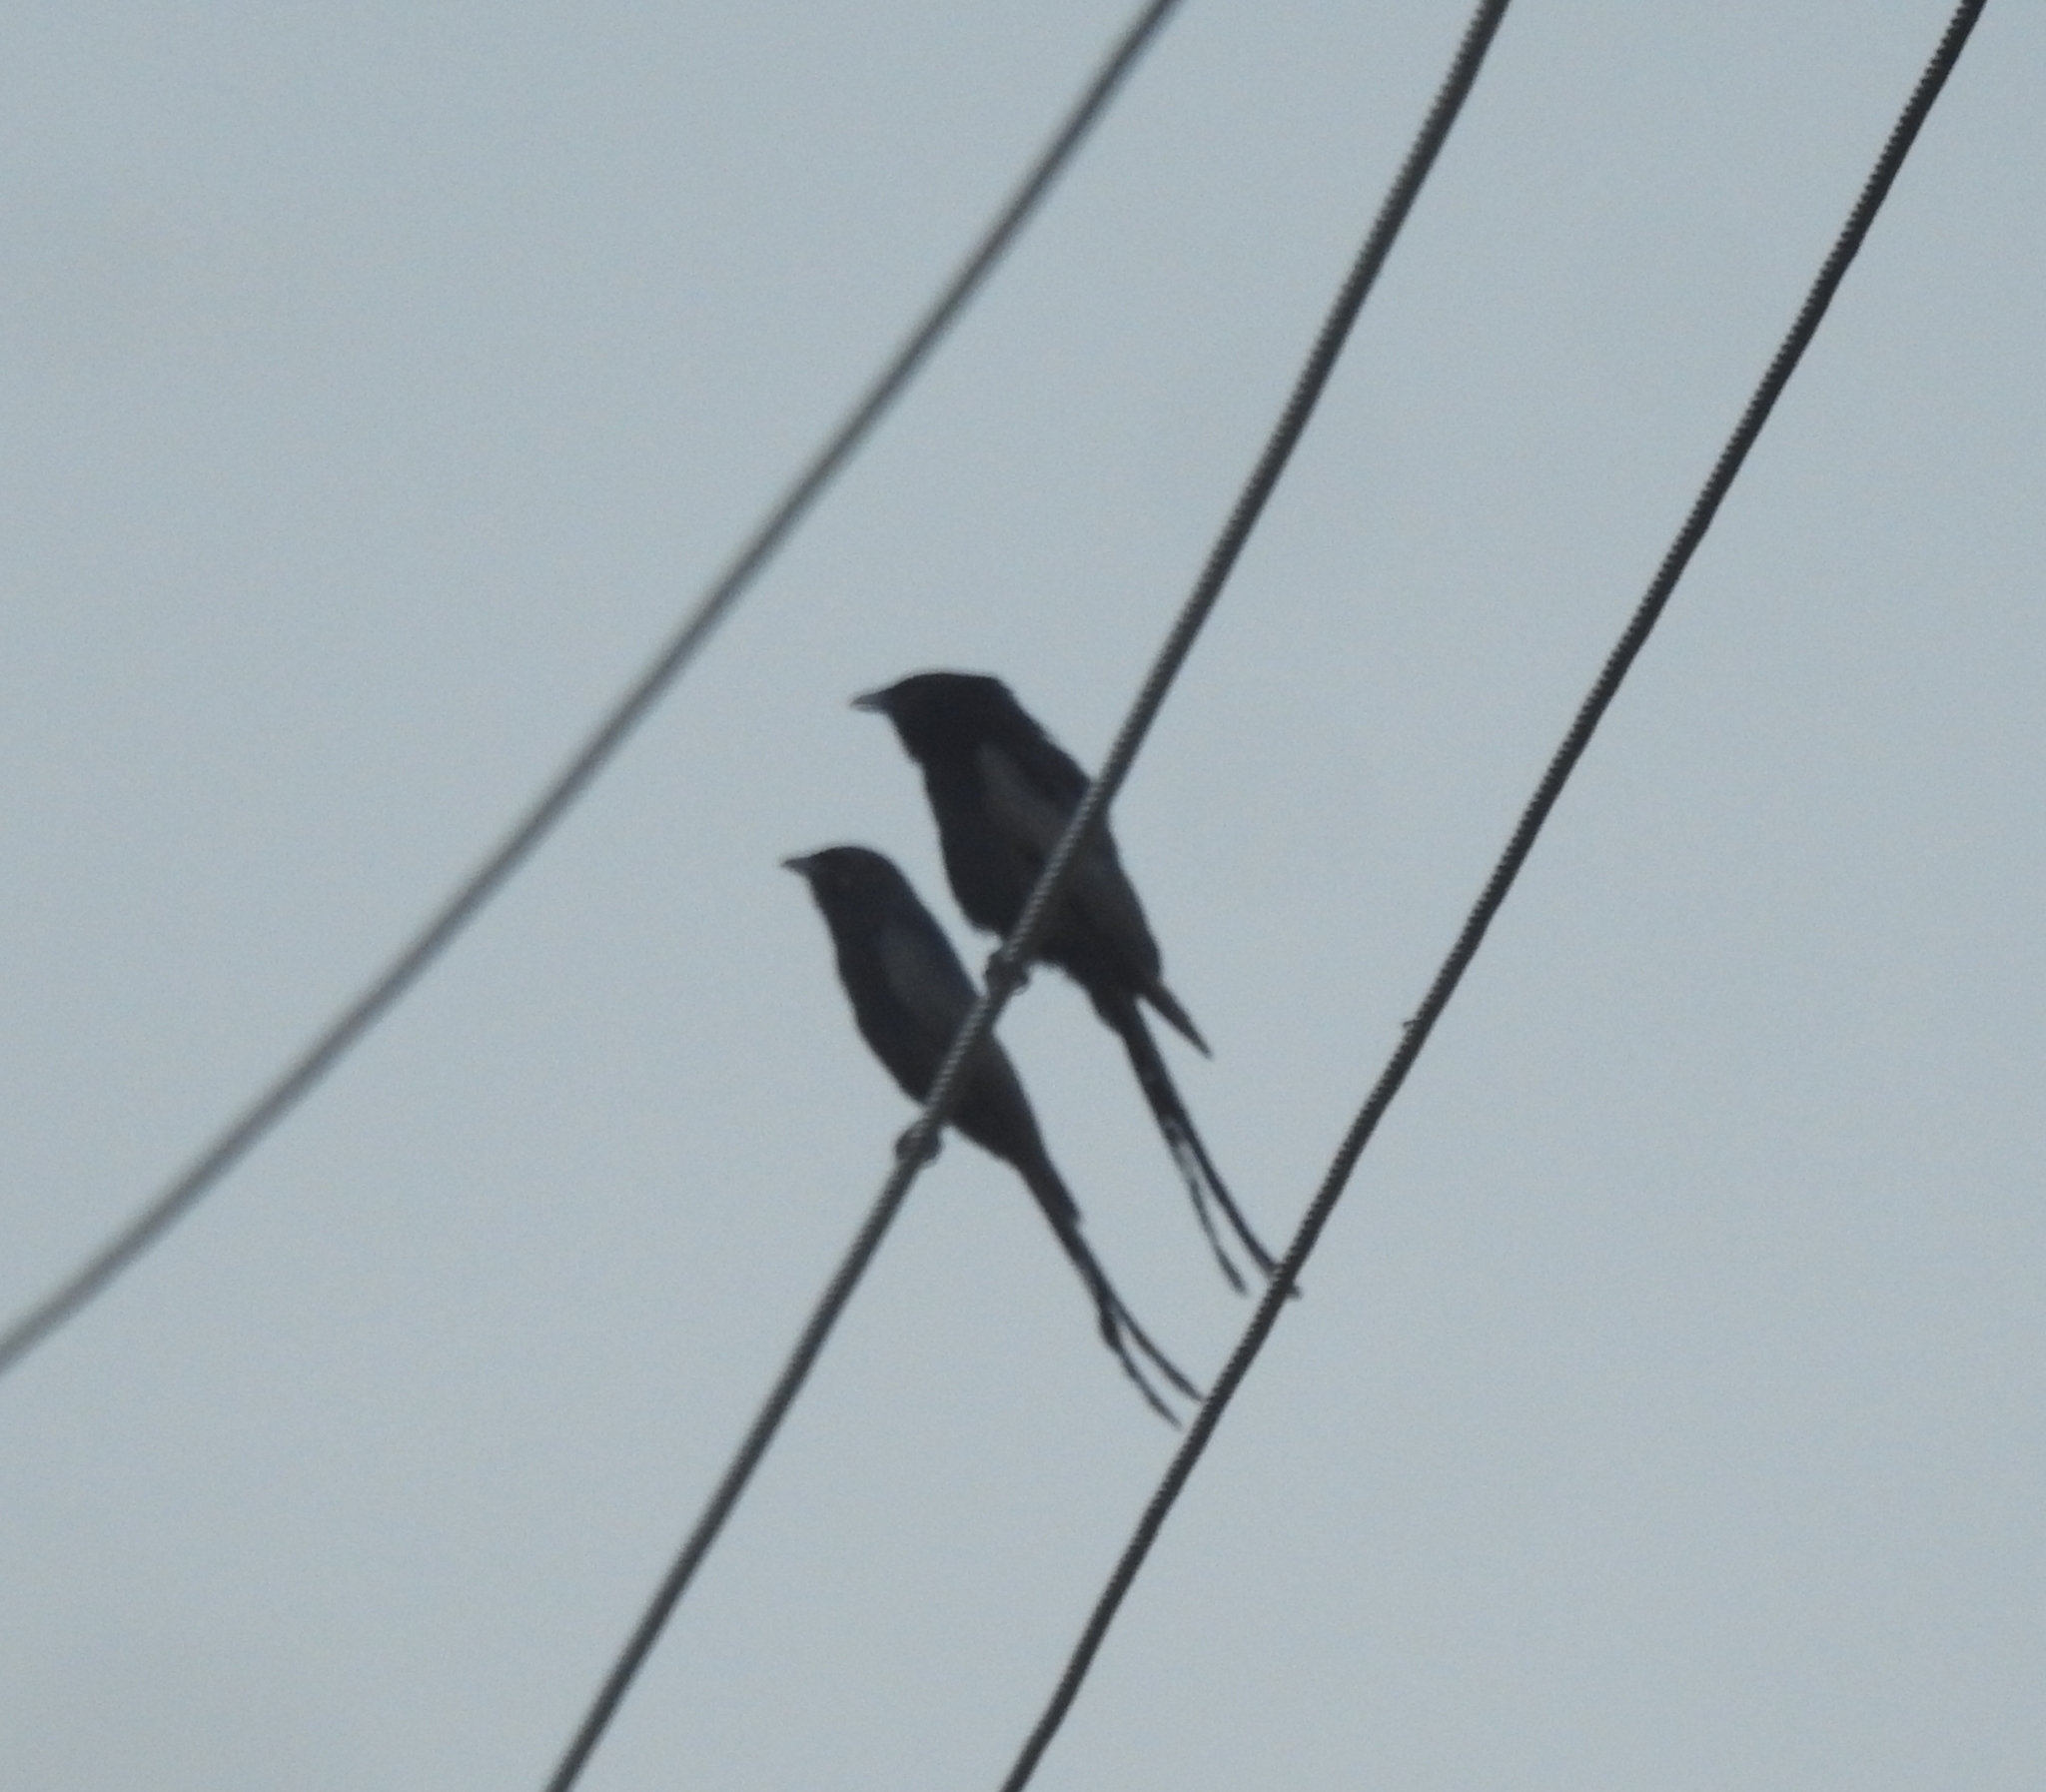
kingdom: Animalia
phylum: Chordata
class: Aves
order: Passeriformes
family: Dicruridae
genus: Dicrurus
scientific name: Dicrurus macrocercus
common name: Black drongo
